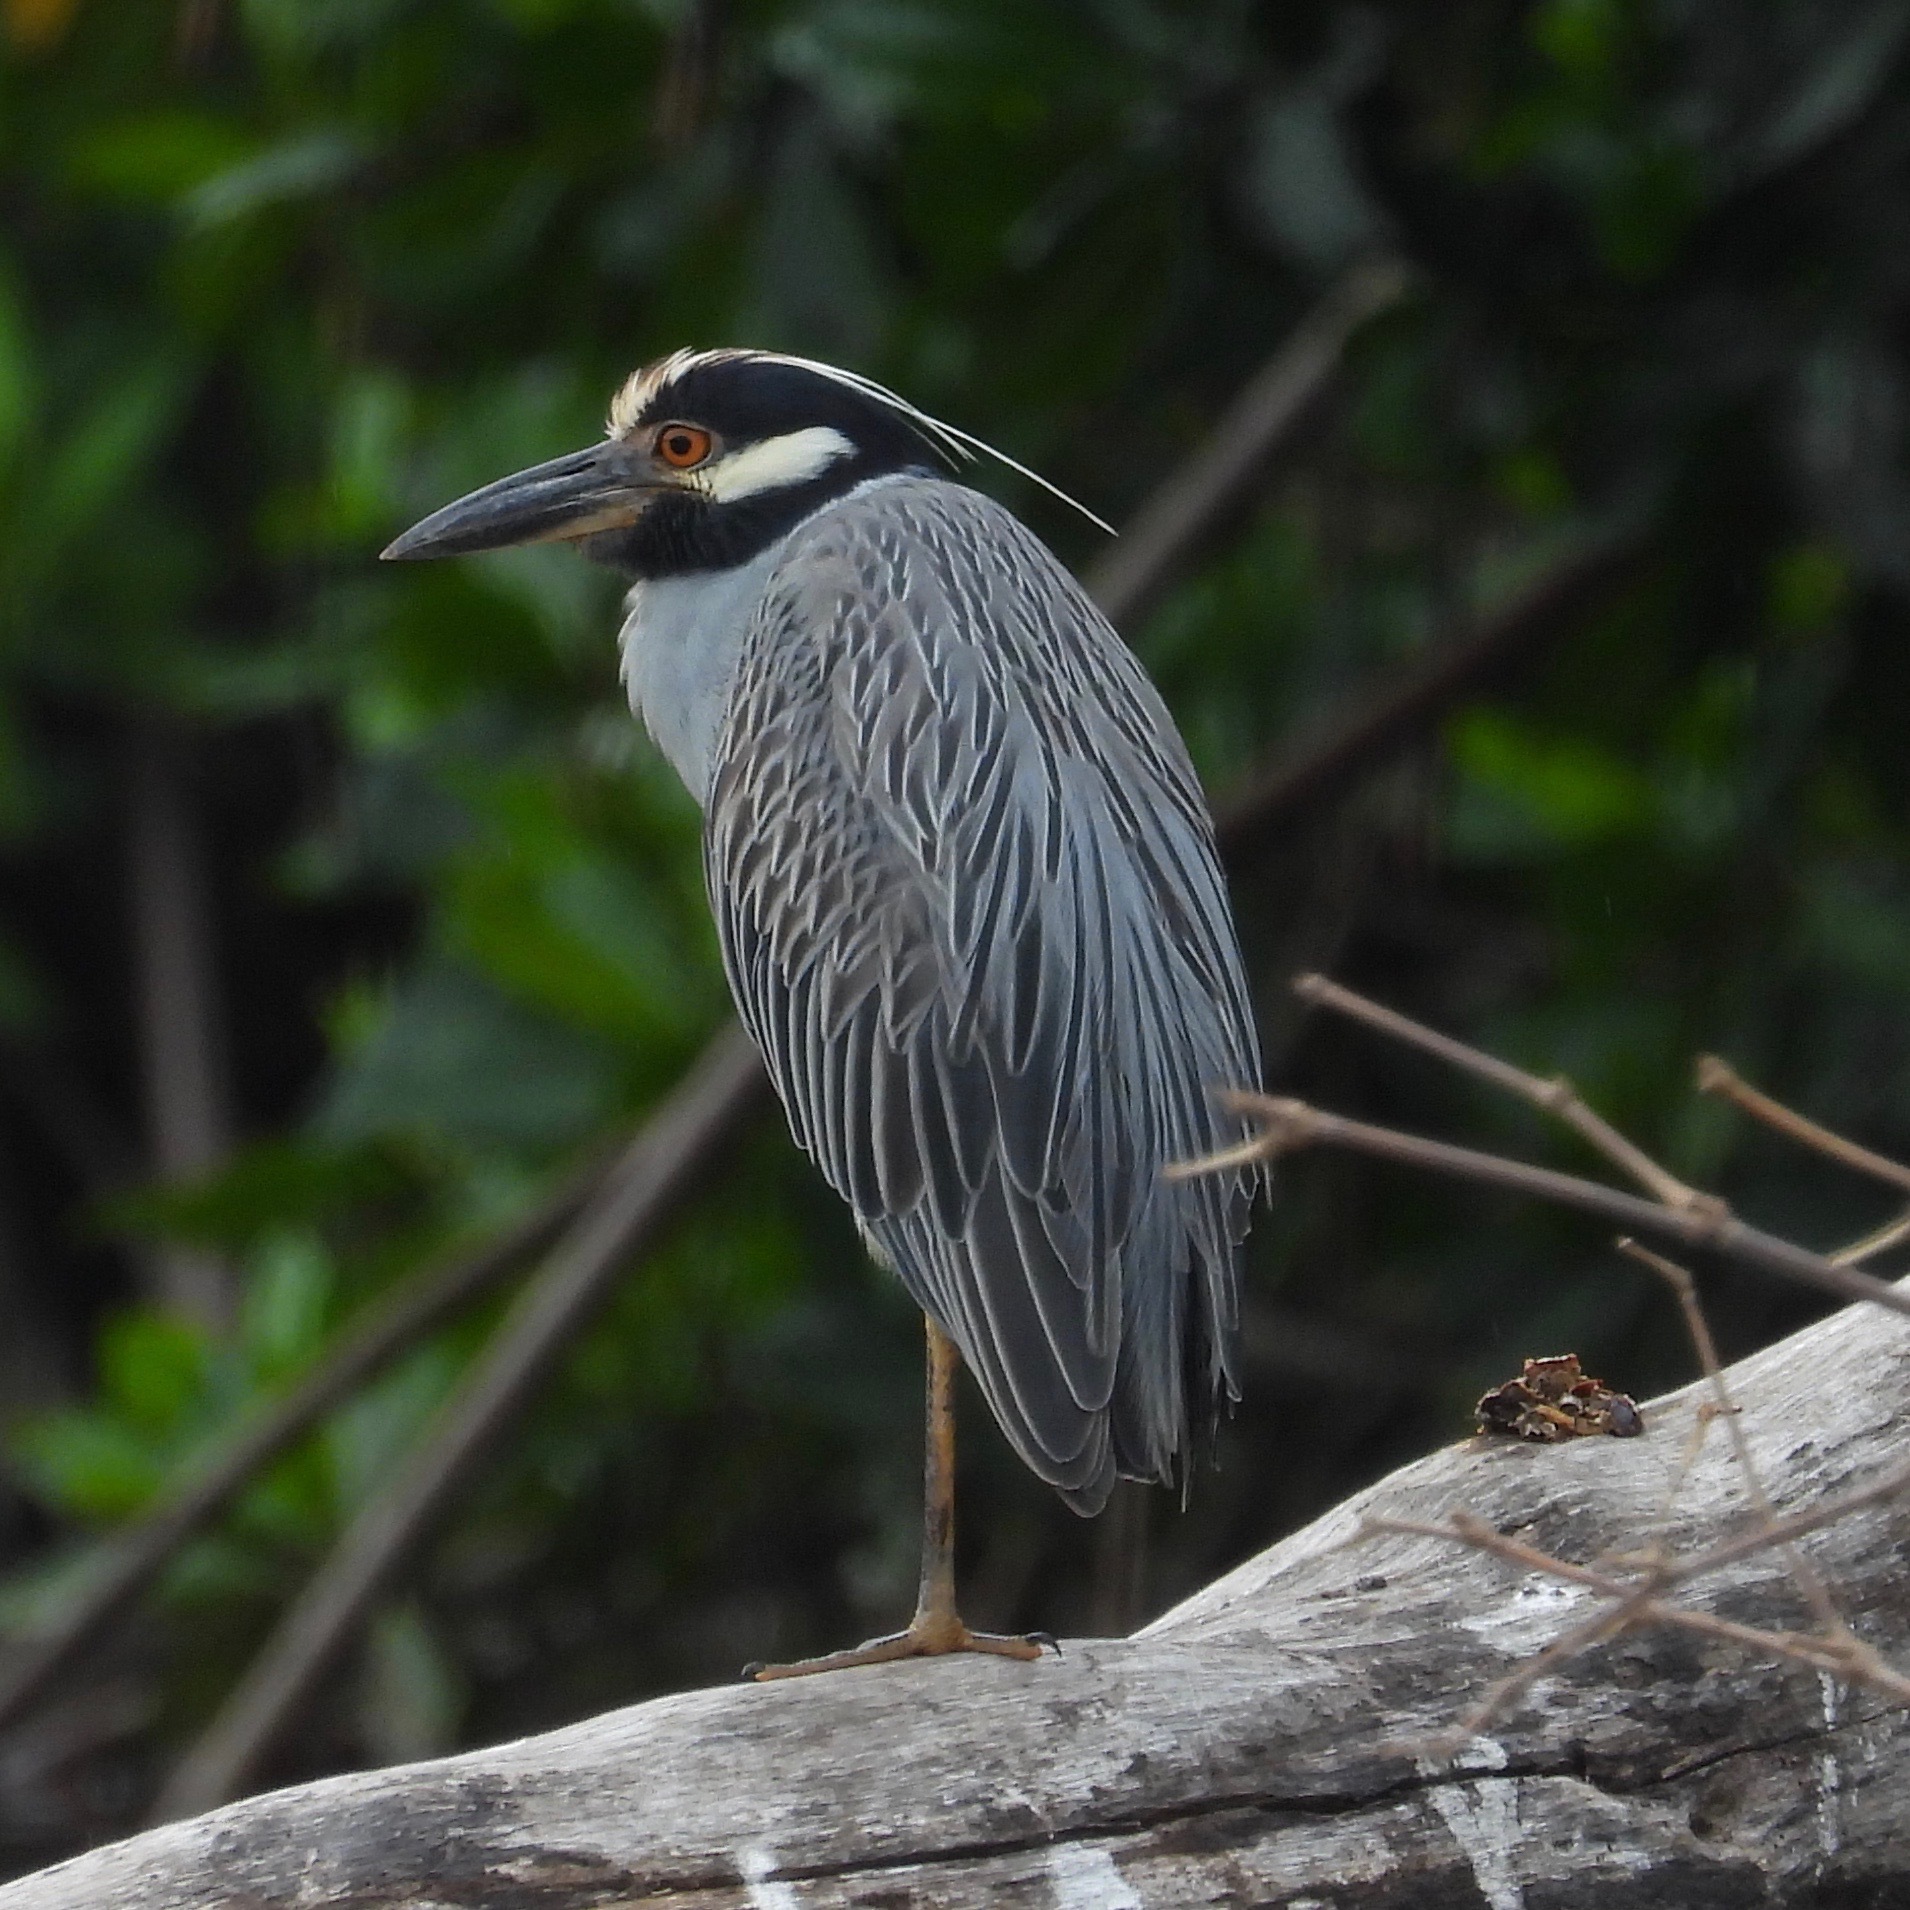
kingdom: Animalia
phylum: Chordata
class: Aves
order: Pelecaniformes
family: Ardeidae
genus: Nyctanassa
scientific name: Nyctanassa violacea
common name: Yellow-crowned night heron
